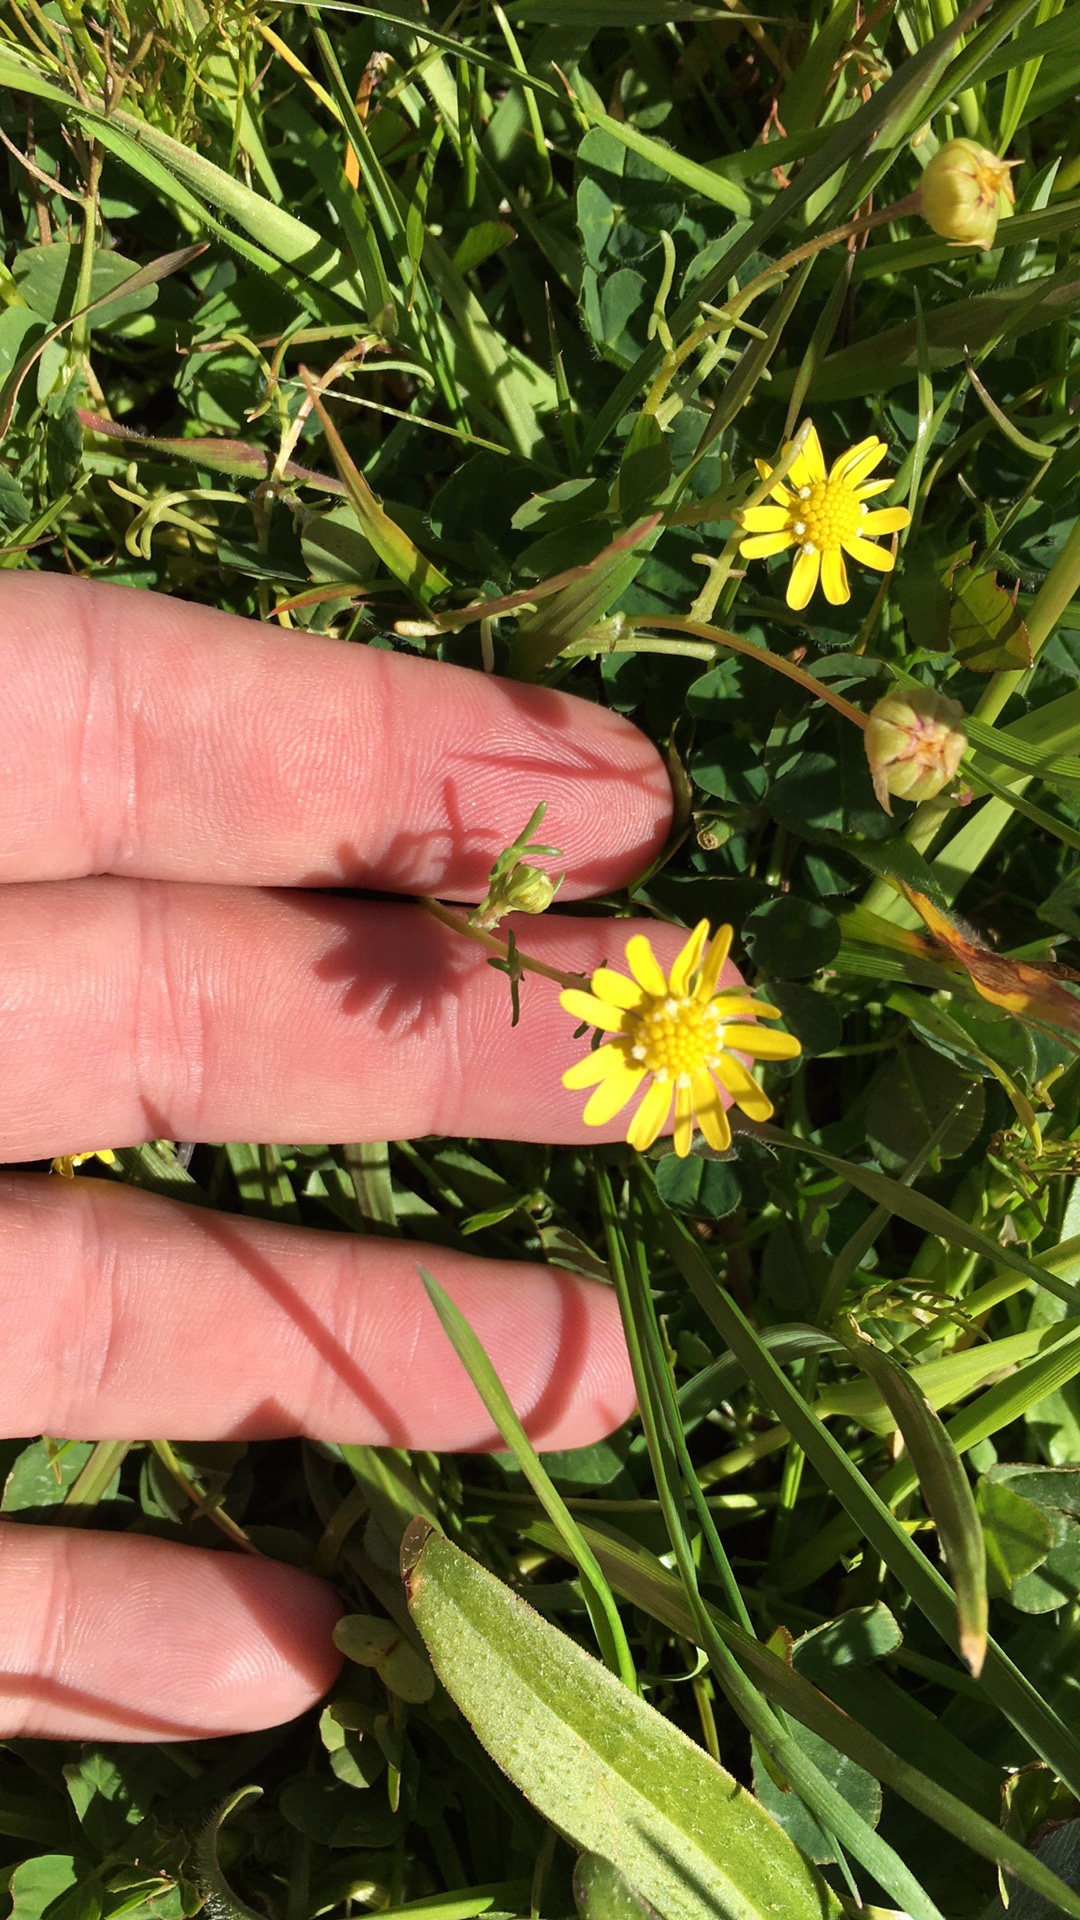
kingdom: Plantae
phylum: Tracheophyta
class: Magnoliopsida
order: Asterales
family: Asteraceae
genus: Blennosperma
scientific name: Blennosperma nanum
